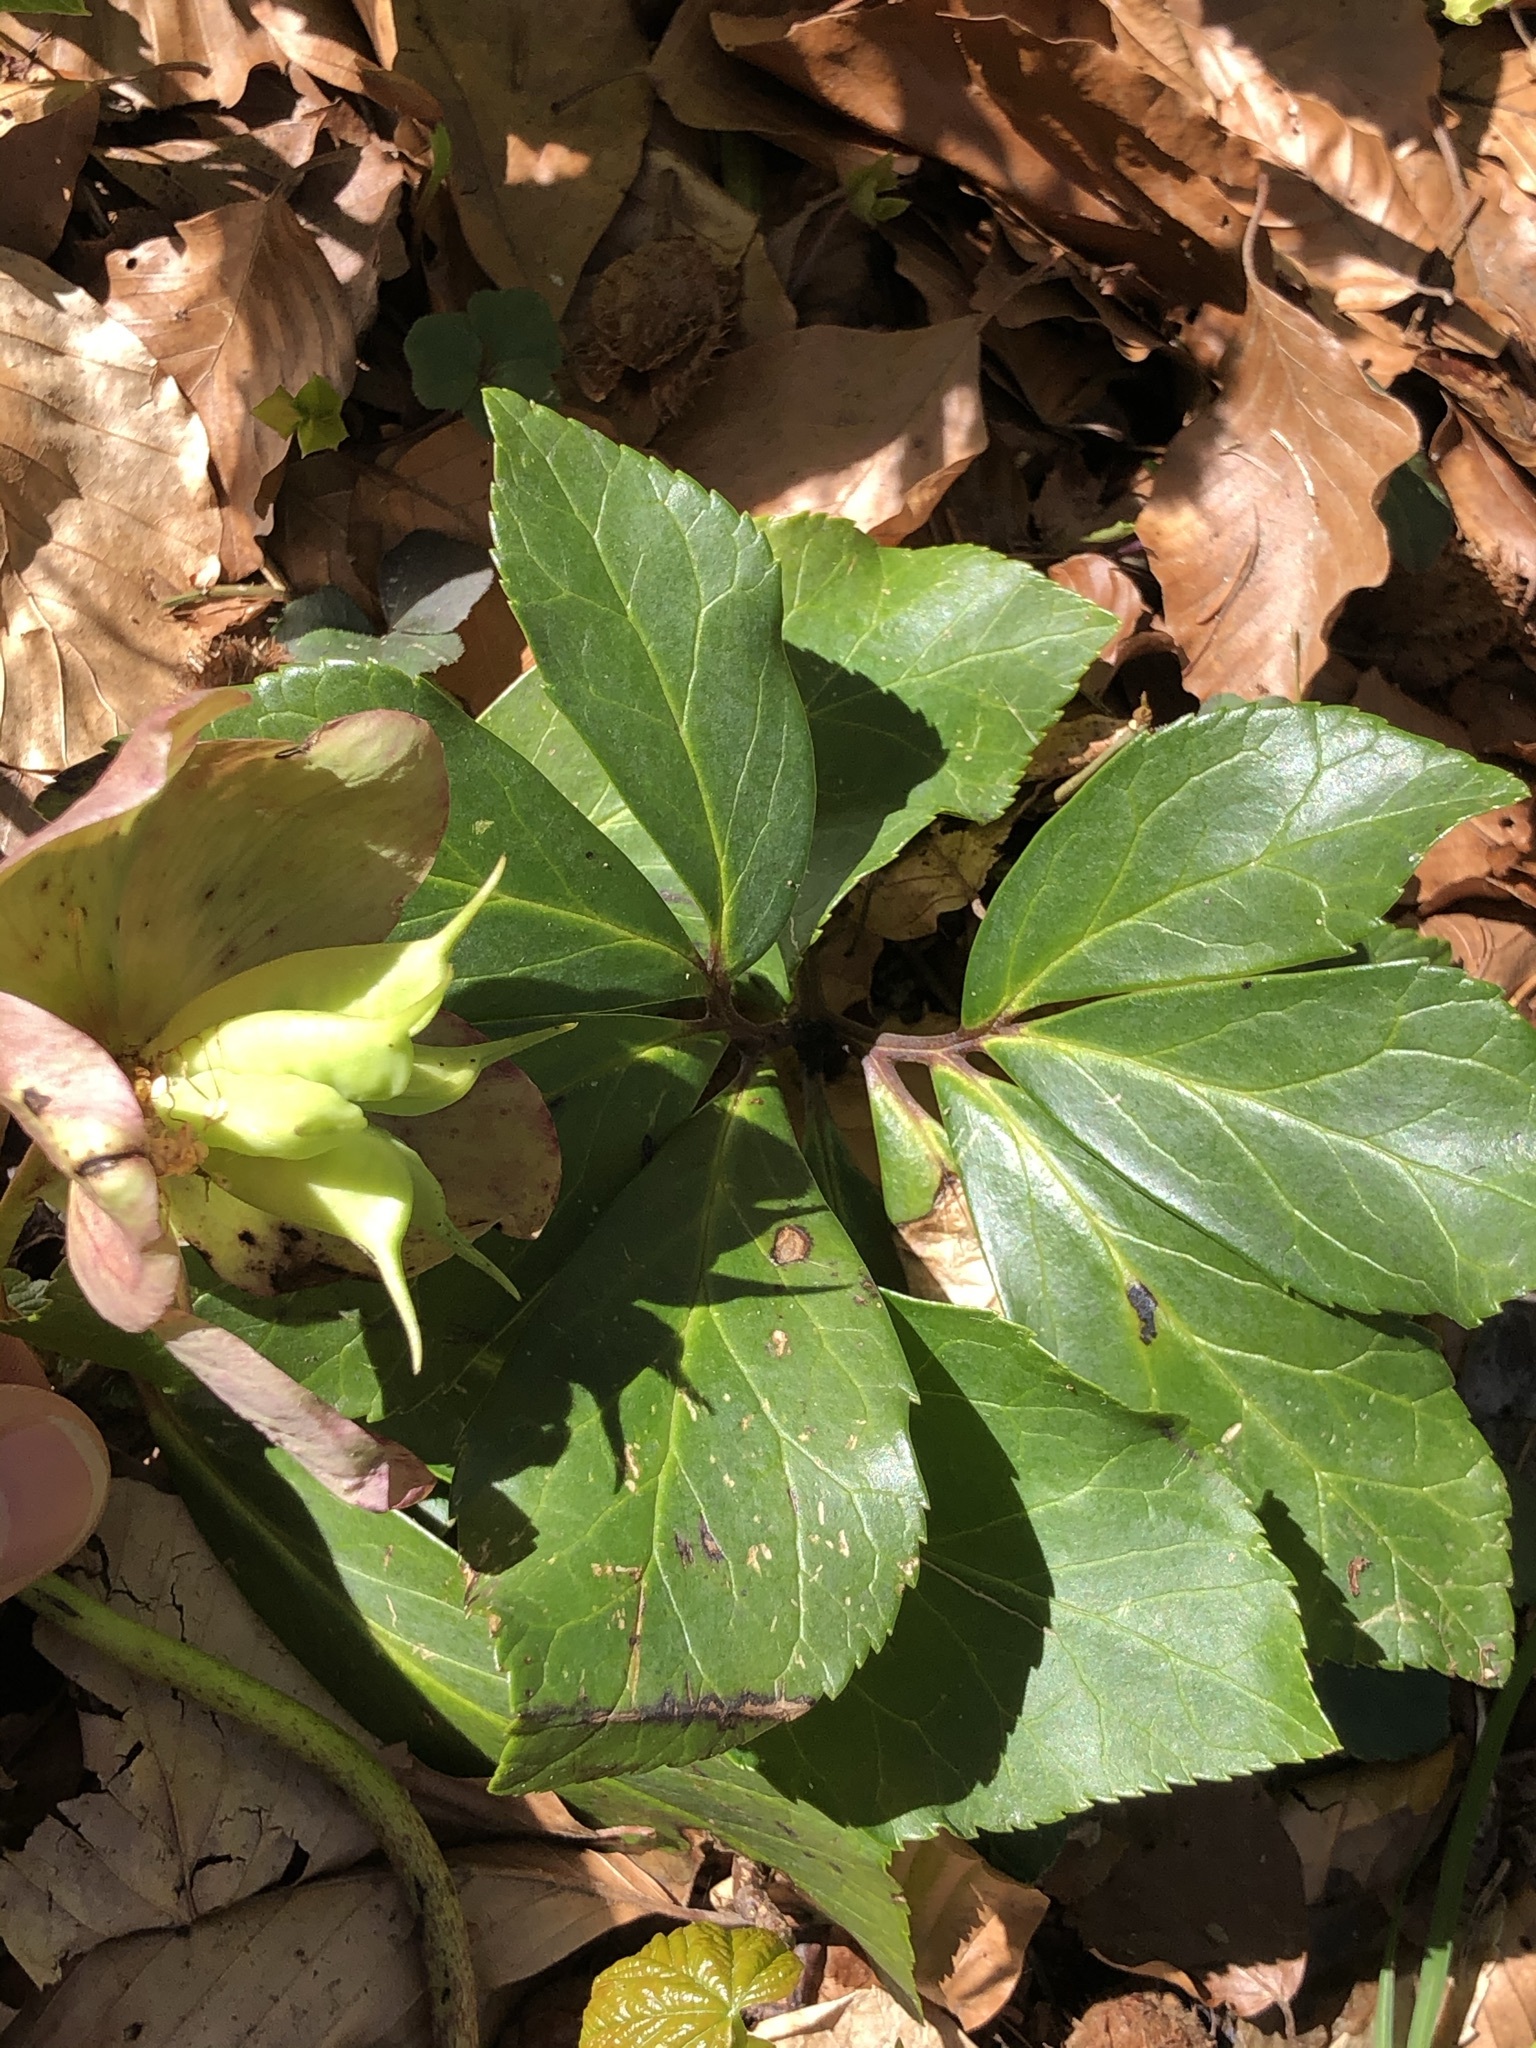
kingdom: Plantae
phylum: Tracheophyta
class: Magnoliopsida
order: Ranunculales
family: Ranunculaceae
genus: Helleborus
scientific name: Helleborus niger
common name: Black hellebore
